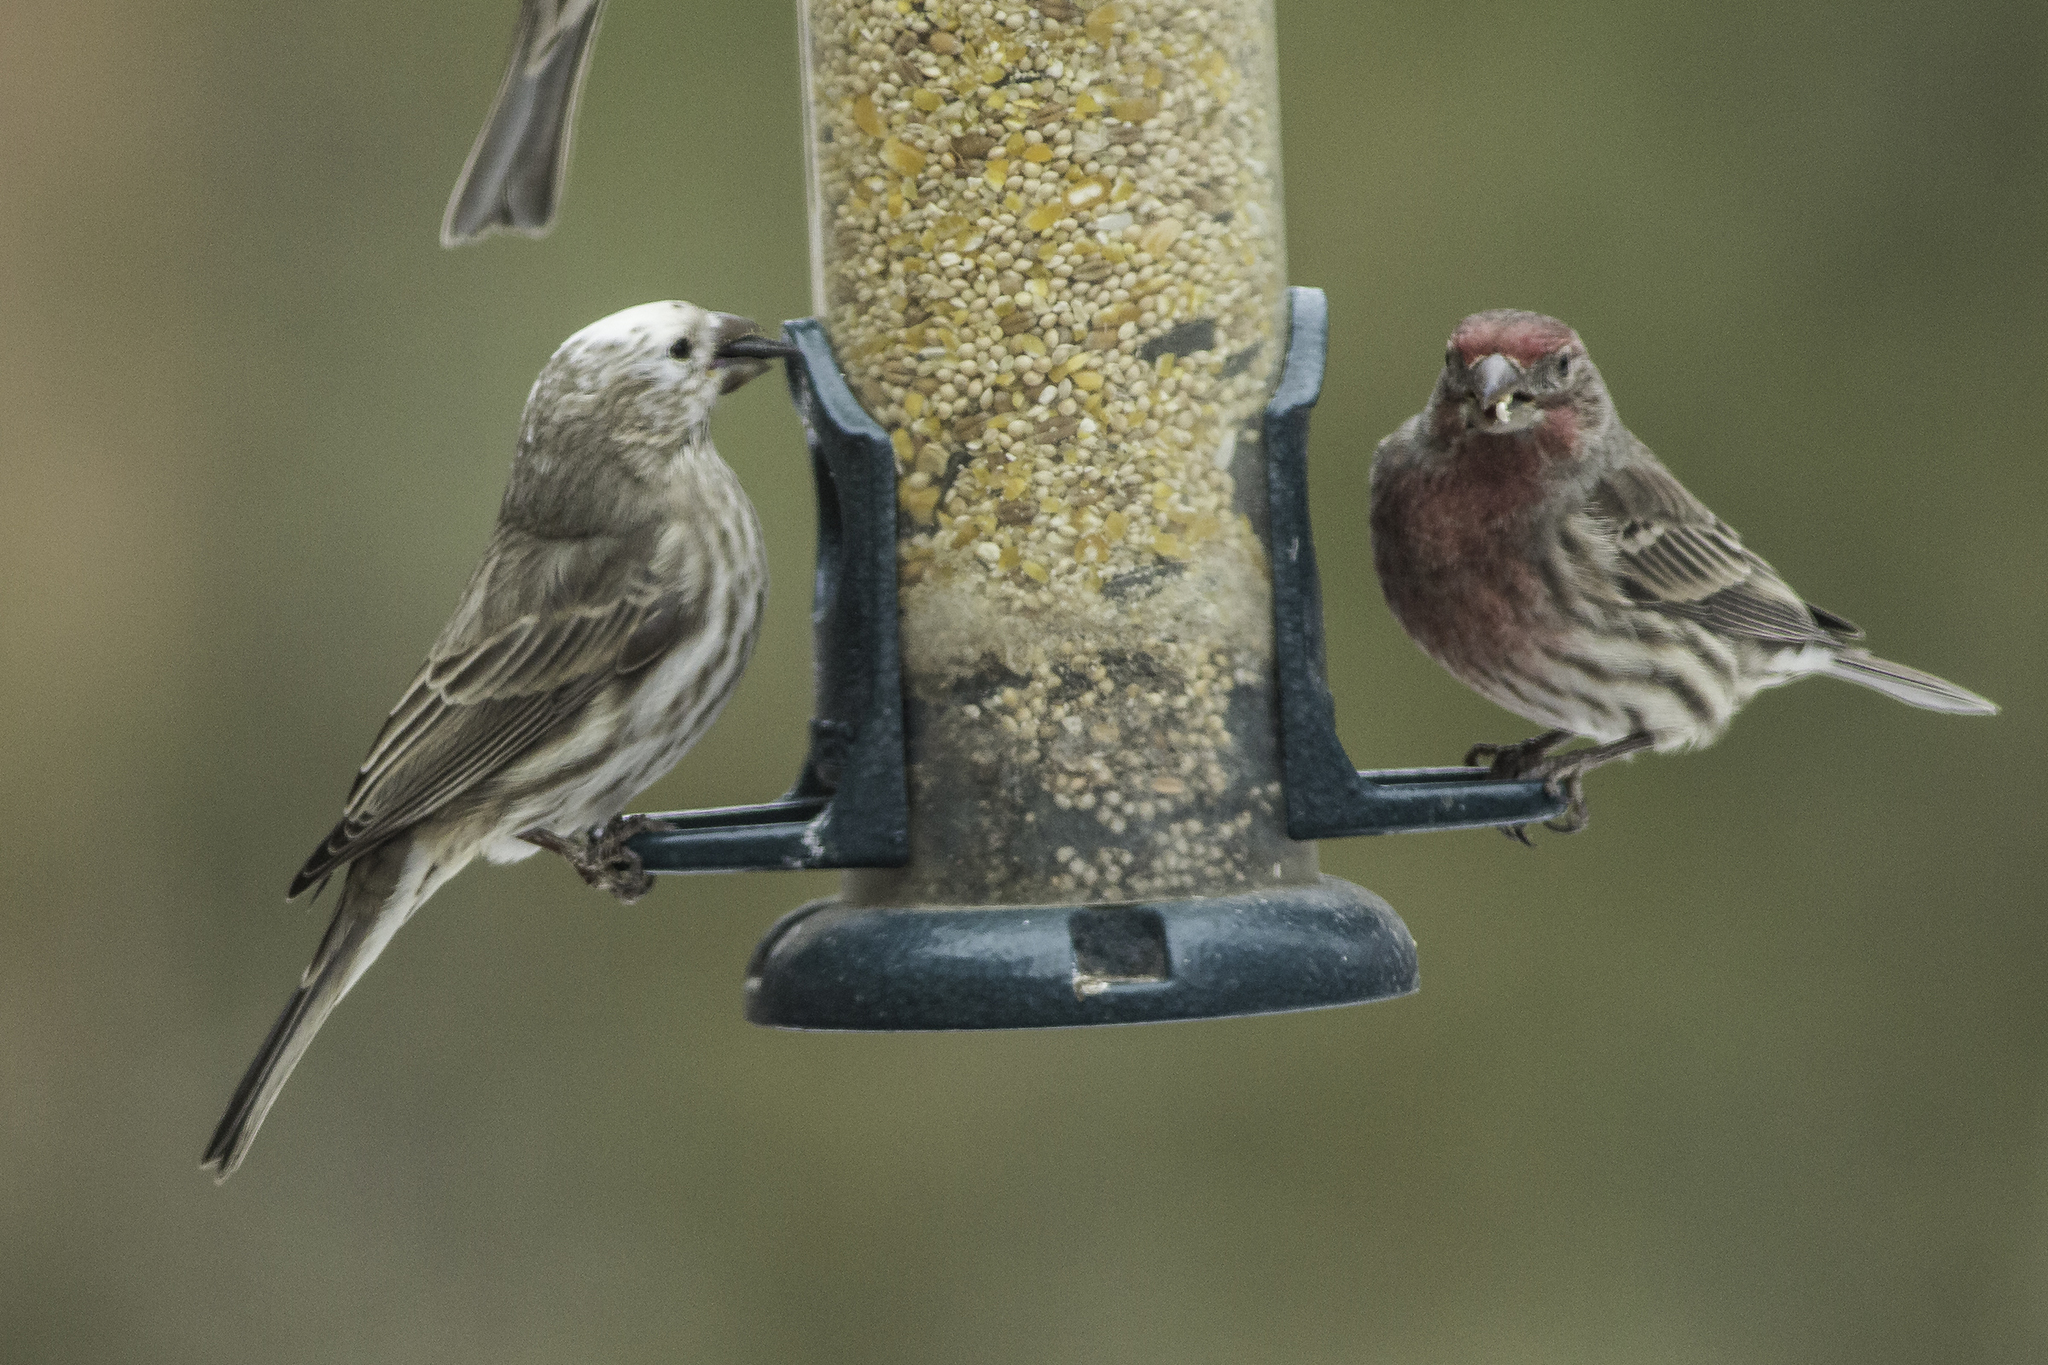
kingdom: Animalia
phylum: Chordata
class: Aves
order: Passeriformes
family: Fringillidae
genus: Haemorhous
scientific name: Haemorhous mexicanus
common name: House finch
